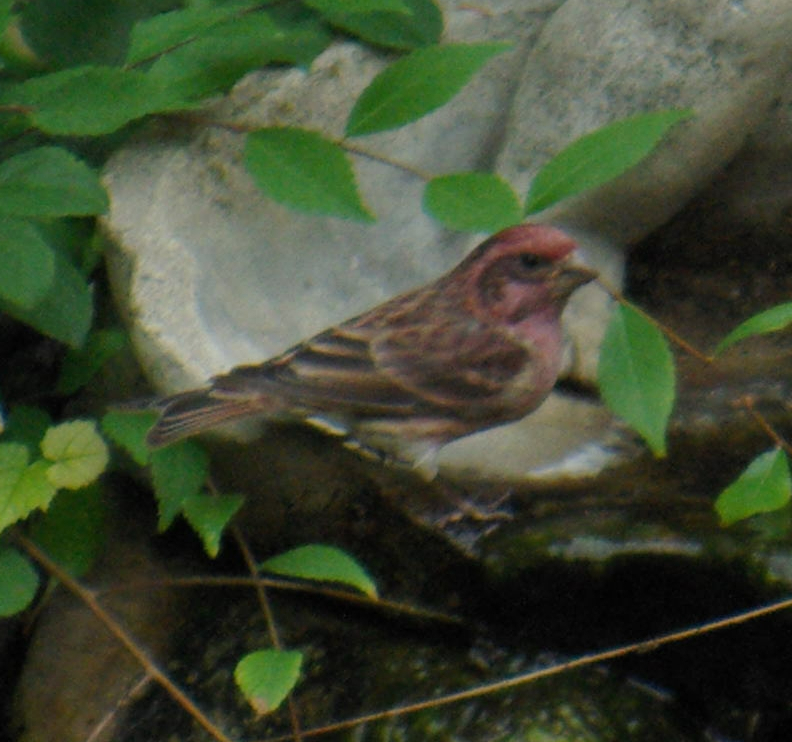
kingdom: Animalia
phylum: Chordata
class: Aves
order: Passeriformes
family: Fringillidae
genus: Haemorhous
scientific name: Haemorhous purpureus
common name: Purple finch
